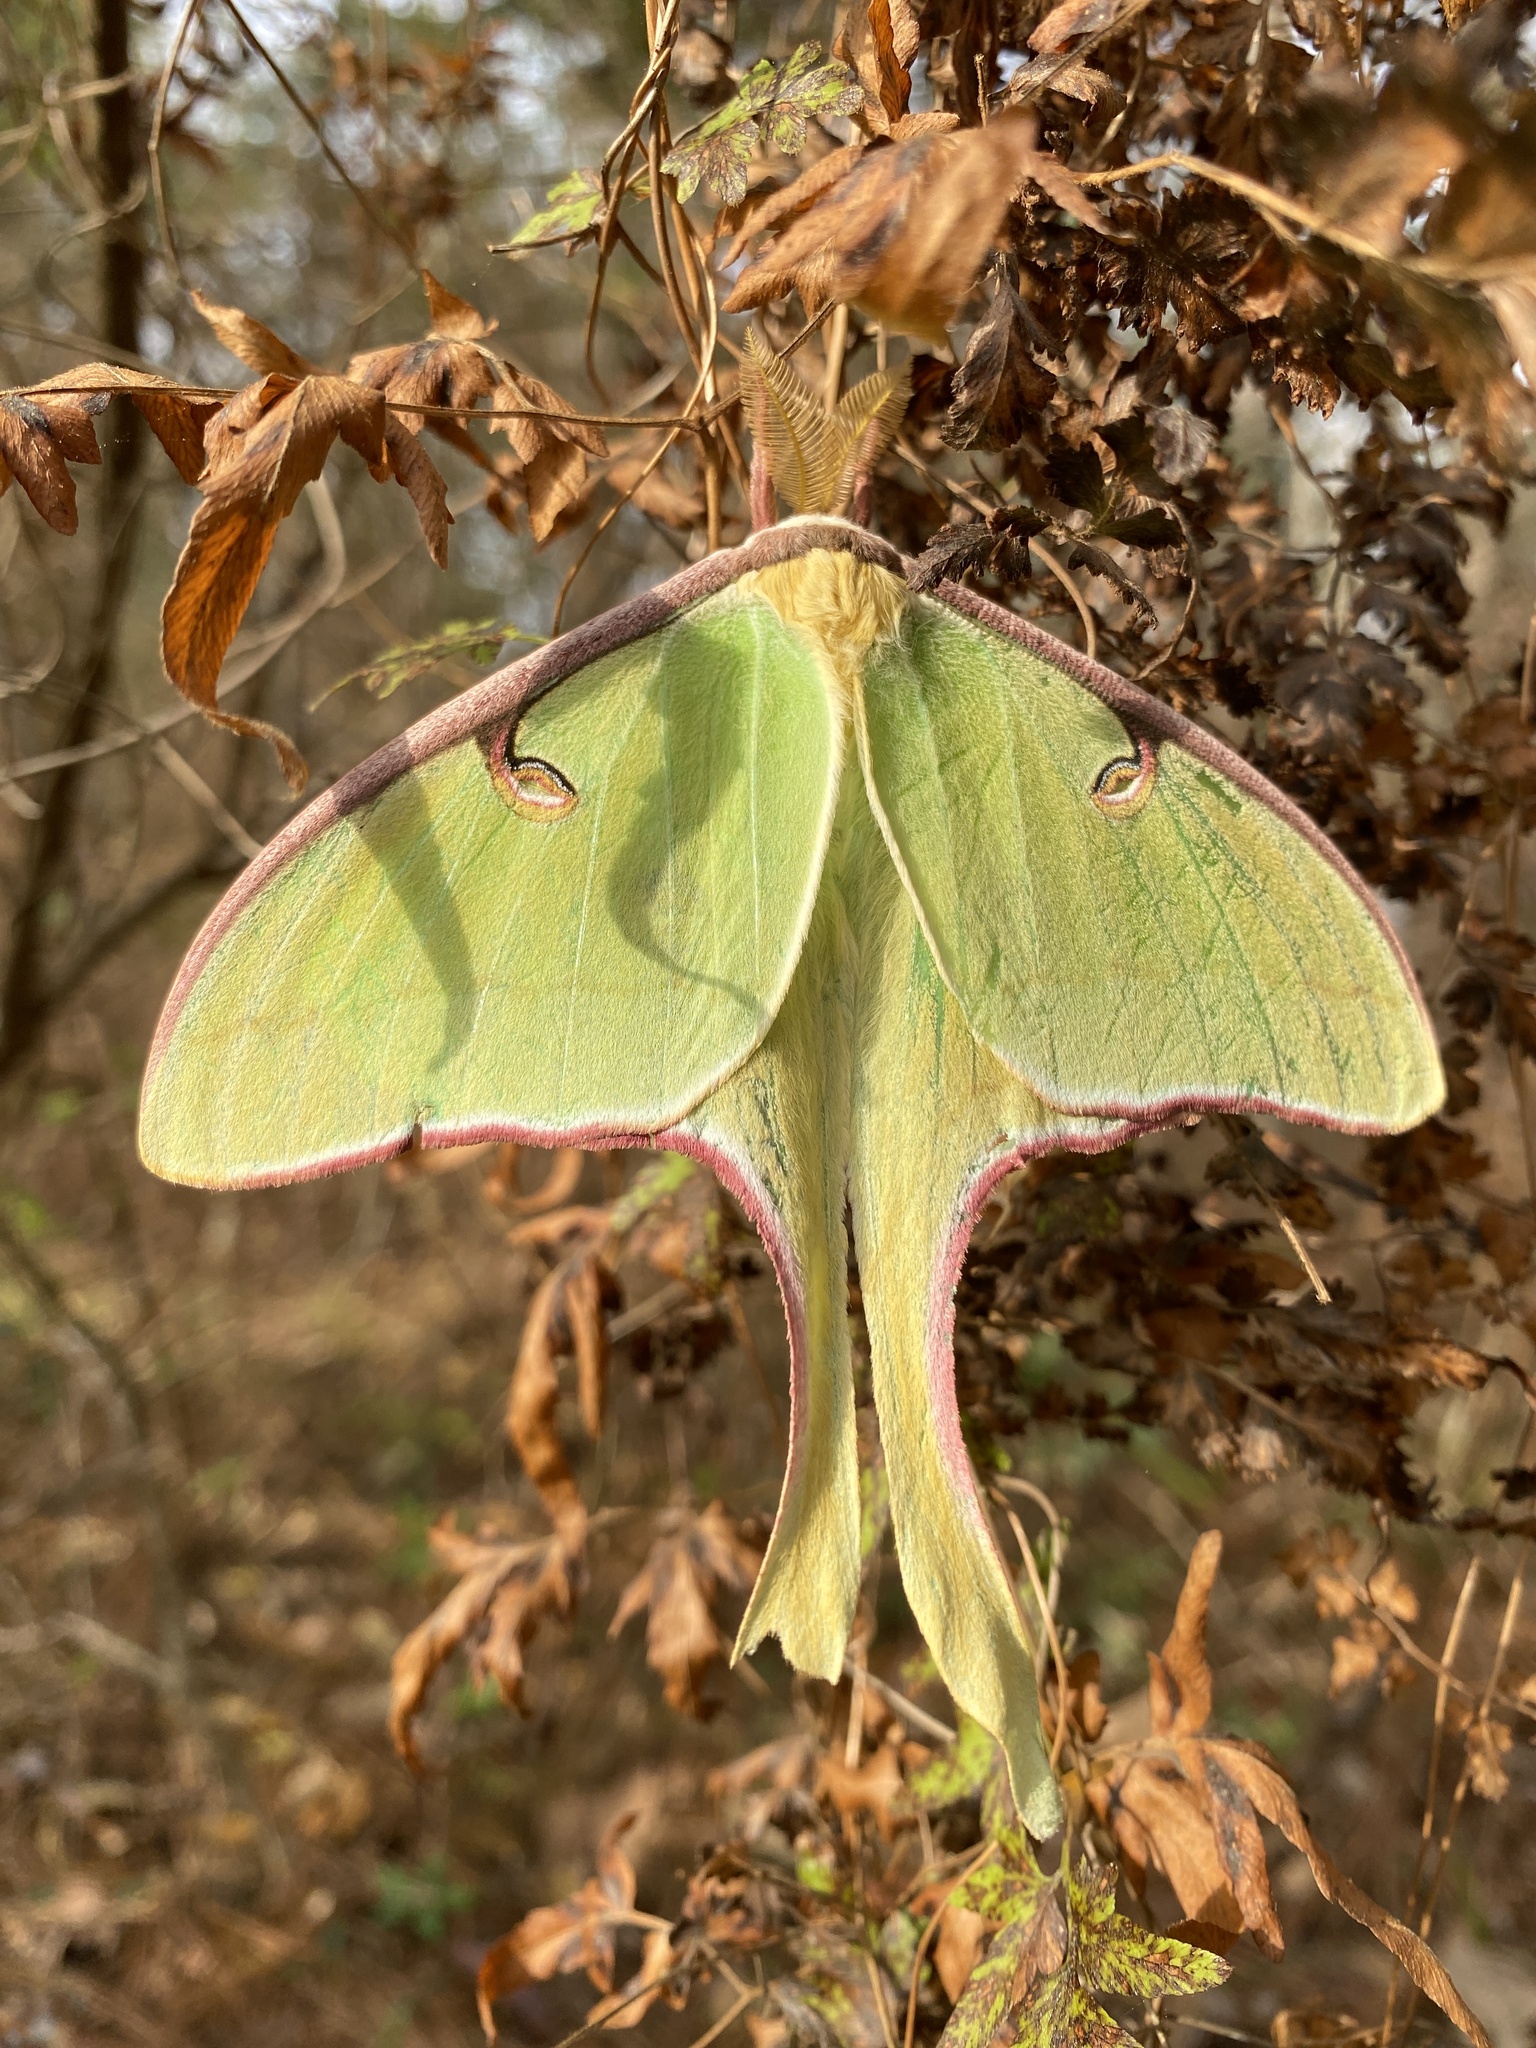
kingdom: Animalia
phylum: Arthropoda
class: Insecta
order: Lepidoptera
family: Saturniidae
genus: Actias
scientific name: Actias luna
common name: Luna moth
